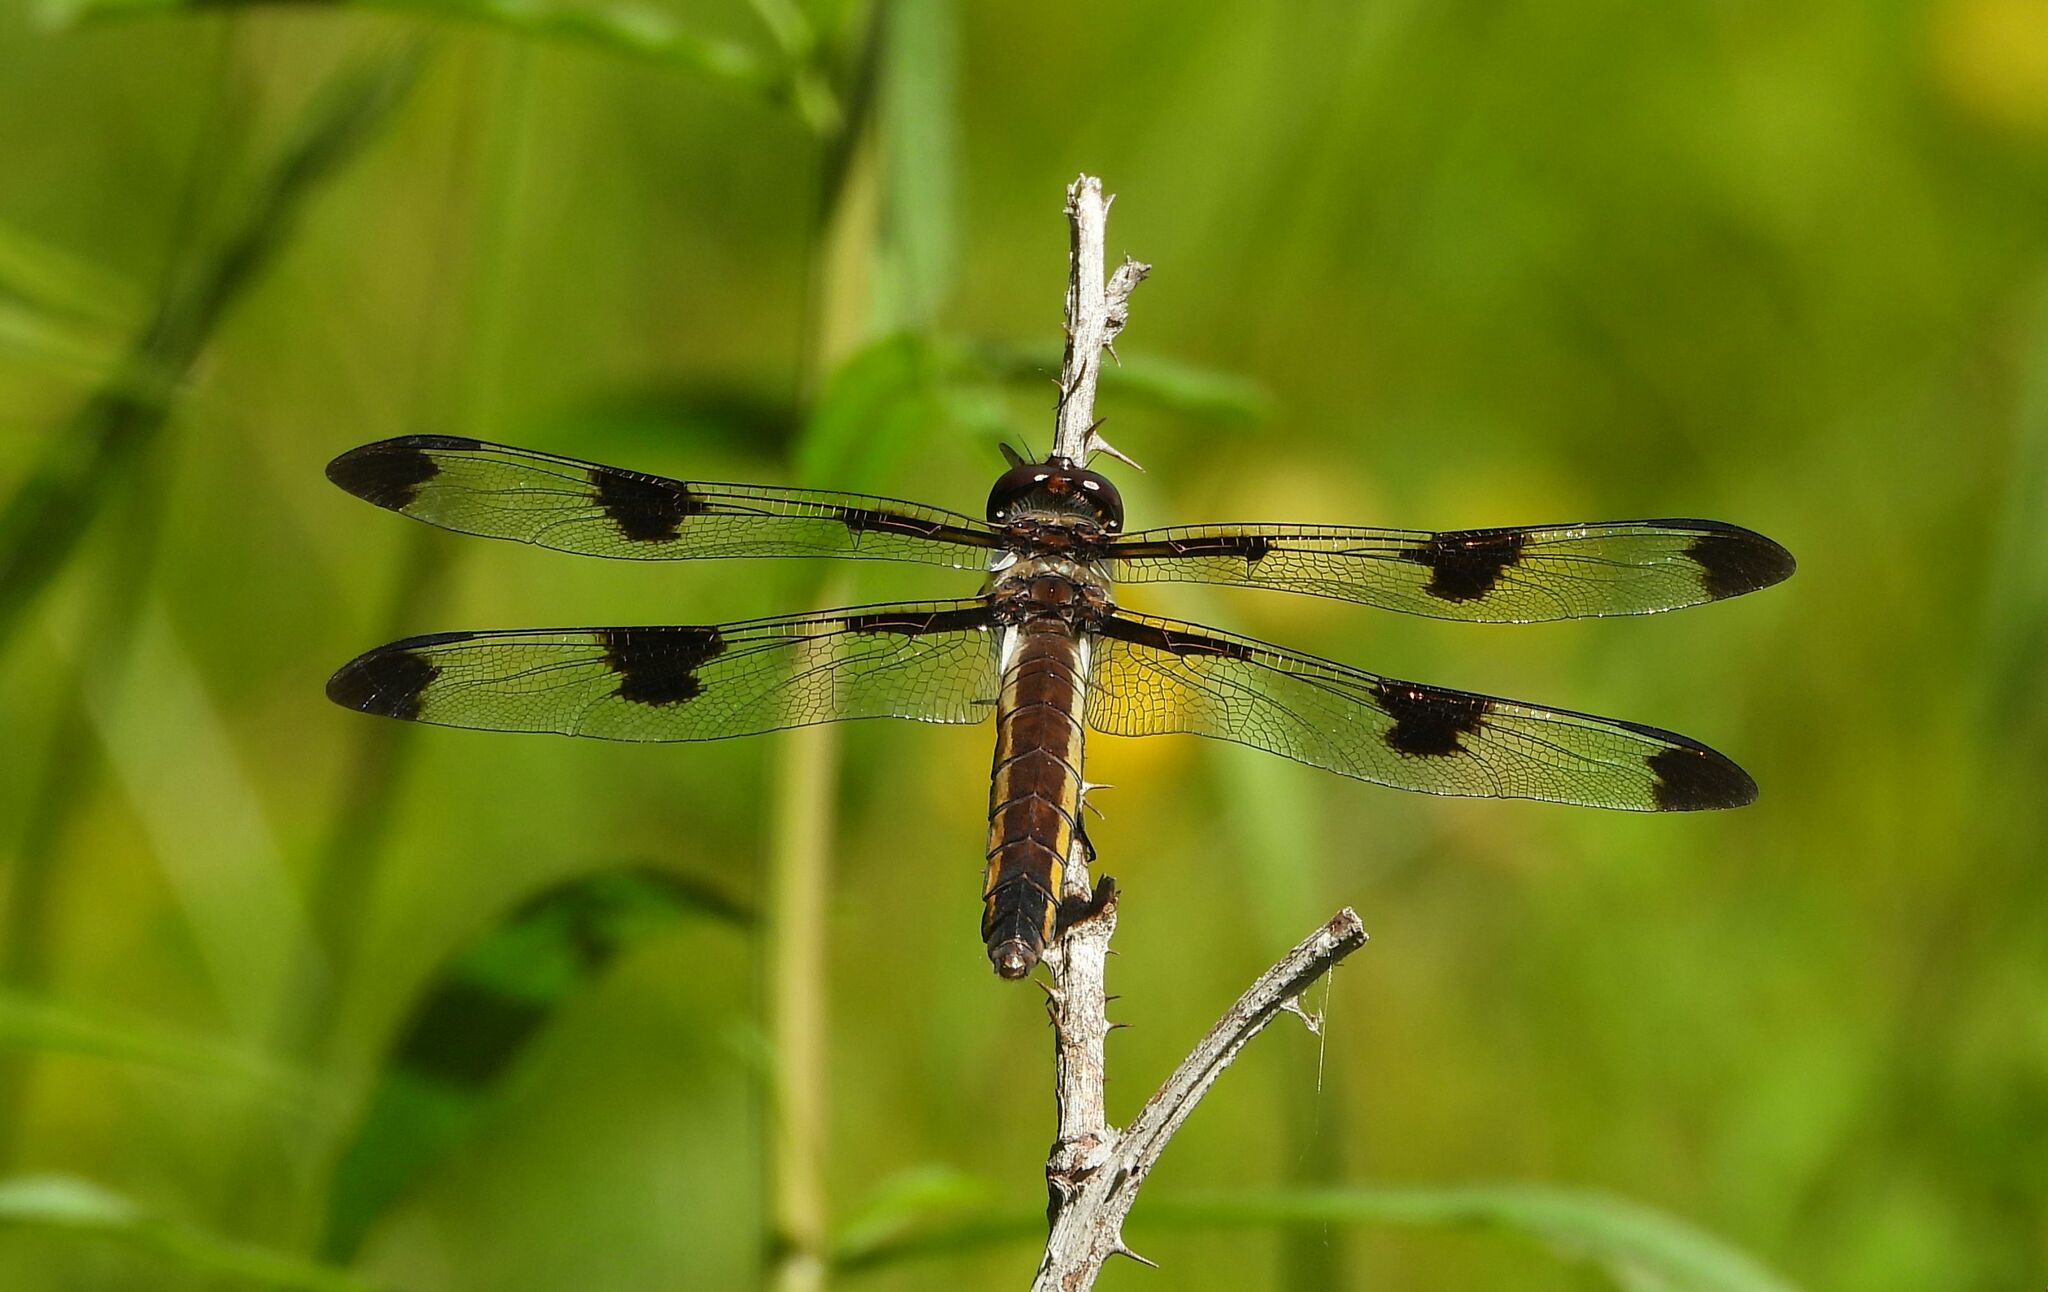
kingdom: Animalia
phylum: Arthropoda
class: Insecta
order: Odonata
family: Libellulidae
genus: Libellula
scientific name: Libellula pulchella
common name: Twelve-spotted skimmer
